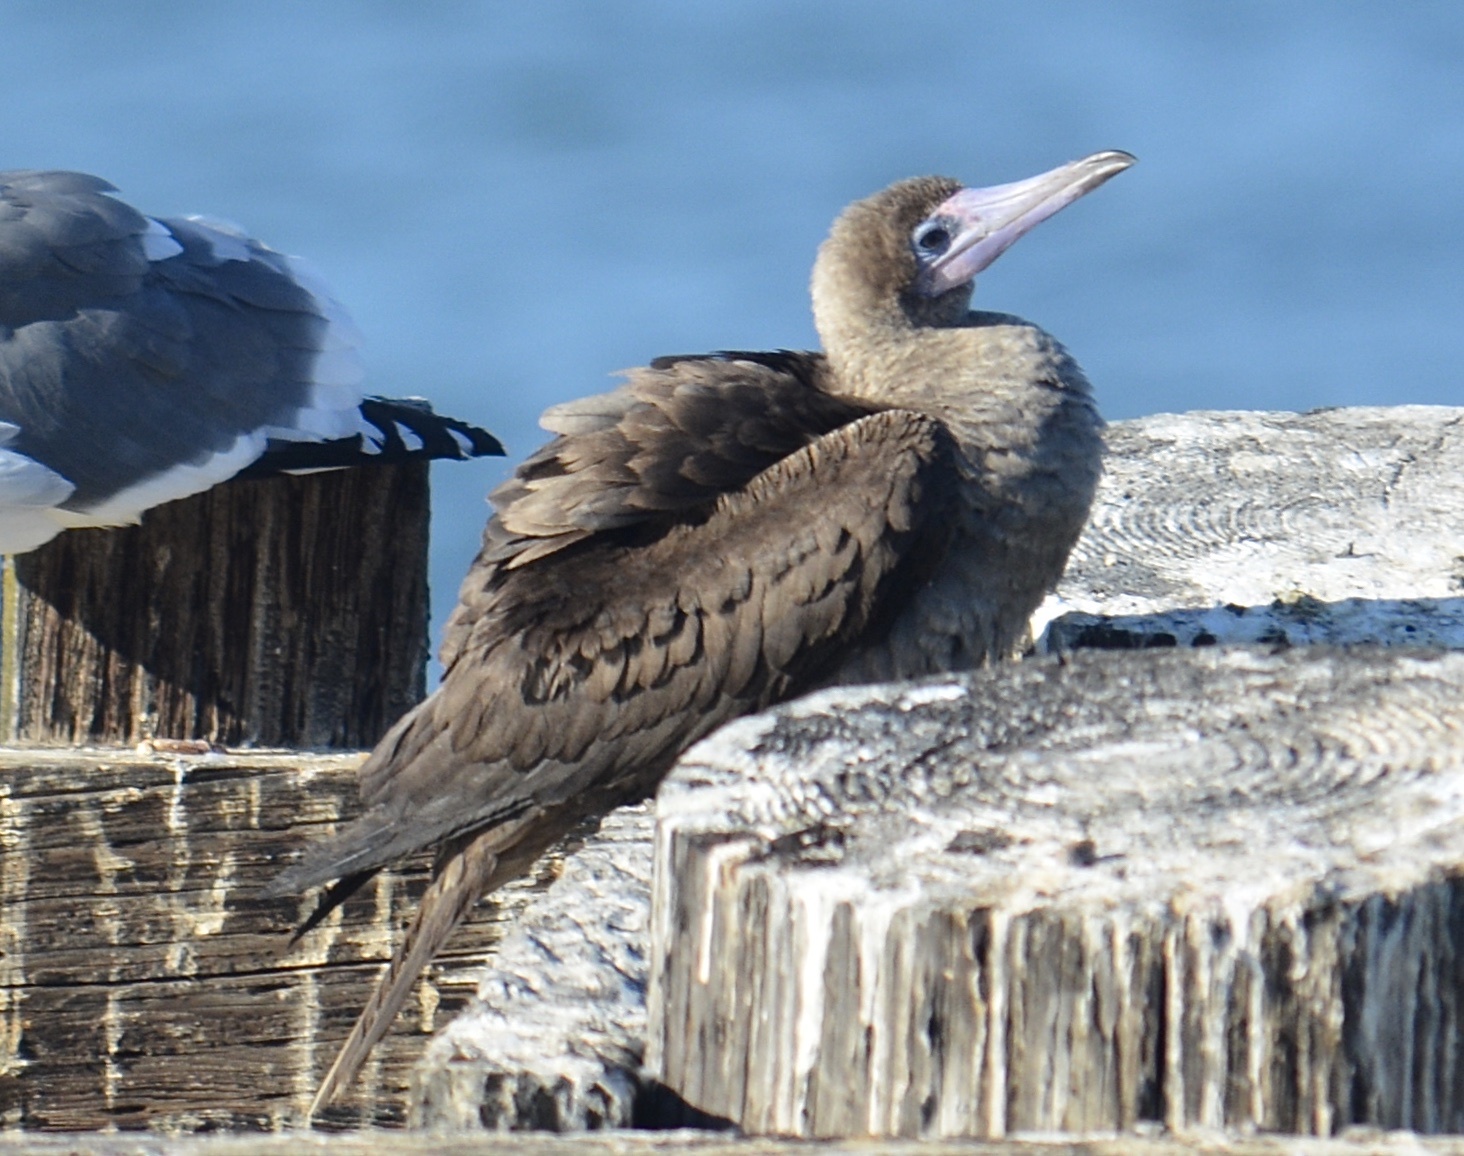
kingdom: Animalia
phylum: Chordata
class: Aves
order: Suliformes
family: Sulidae
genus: Sula
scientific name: Sula sula
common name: Red-footed booby
